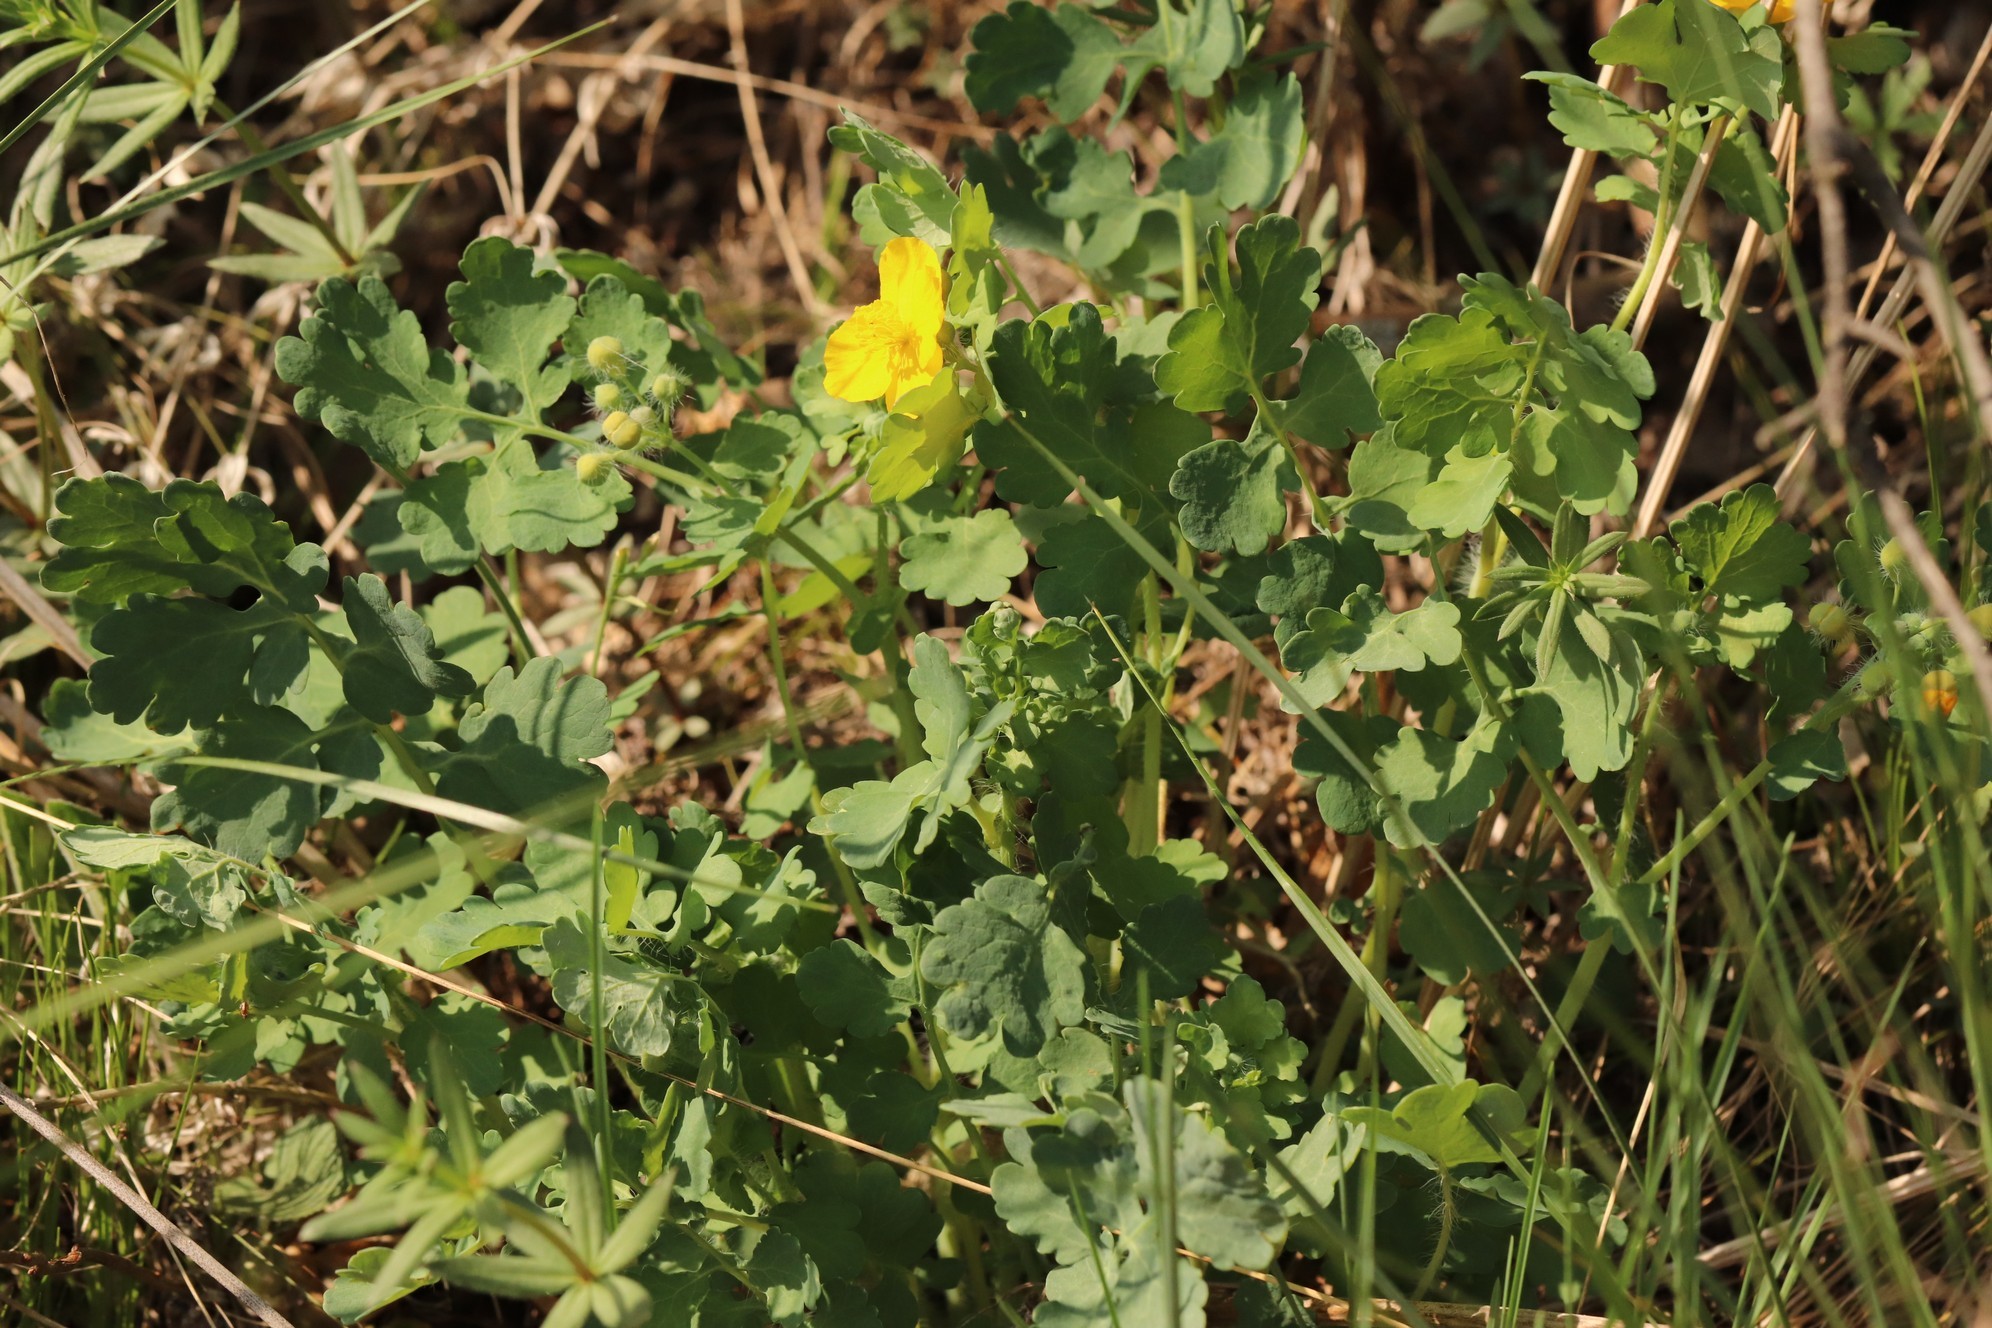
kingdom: Plantae
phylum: Tracheophyta
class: Magnoliopsida
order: Ranunculales
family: Papaveraceae
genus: Chelidonium
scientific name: Chelidonium majus
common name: Greater celandine
